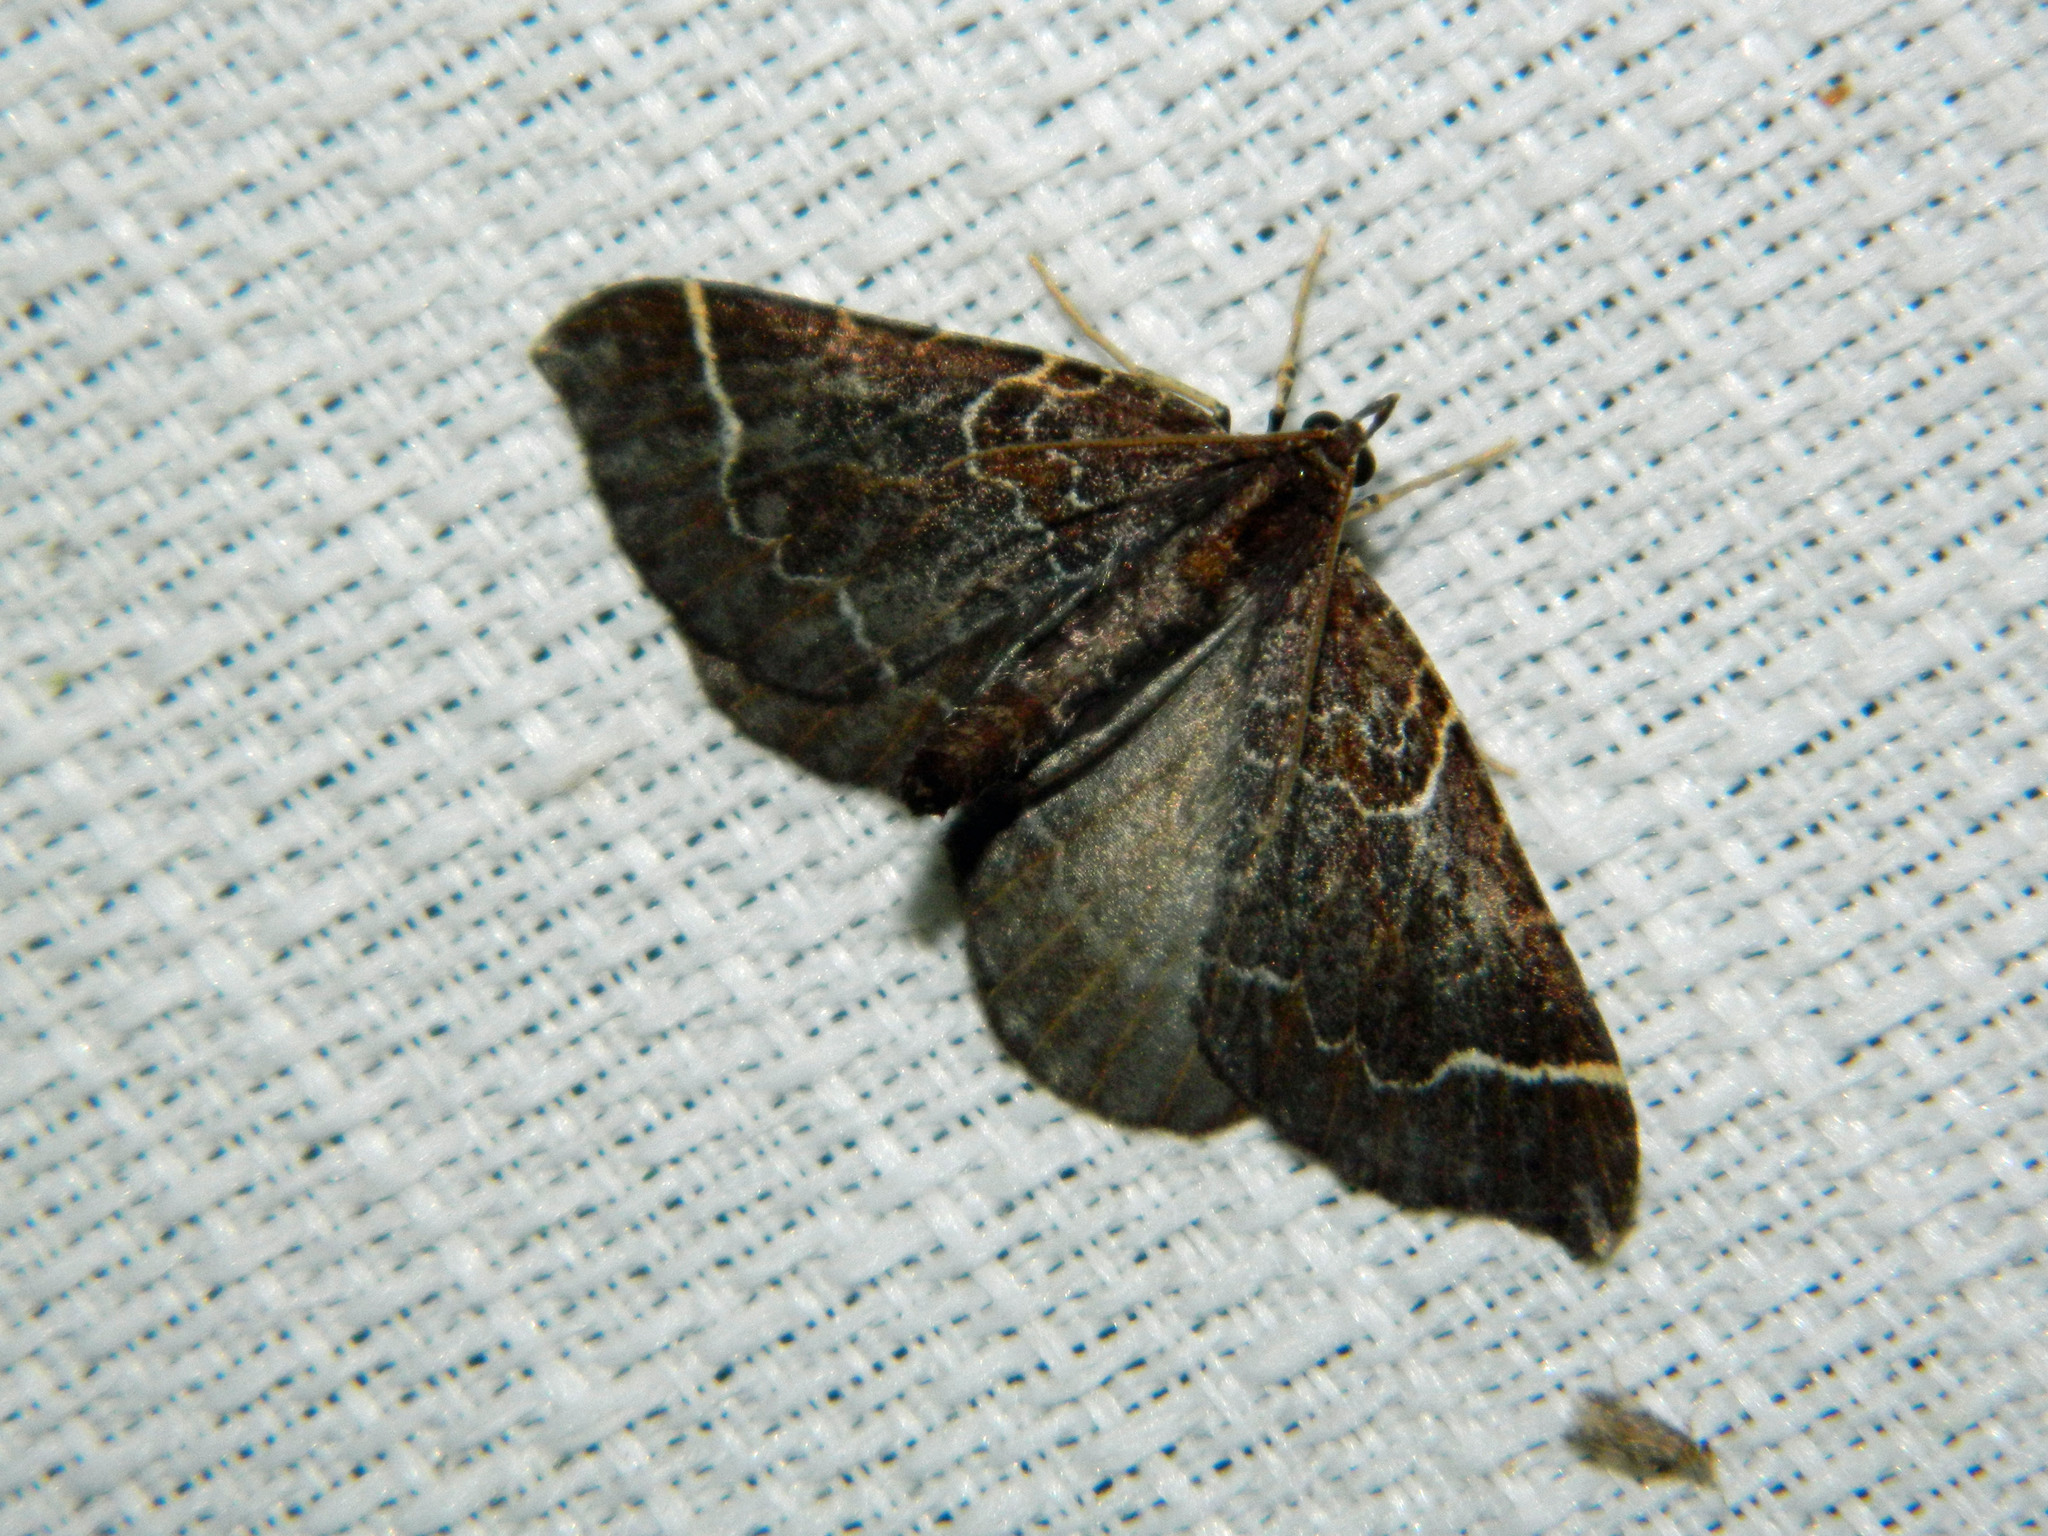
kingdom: Animalia
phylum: Arthropoda
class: Insecta
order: Lepidoptera
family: Geometridae
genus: Eulithis
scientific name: Eulithis flavibrunneata
